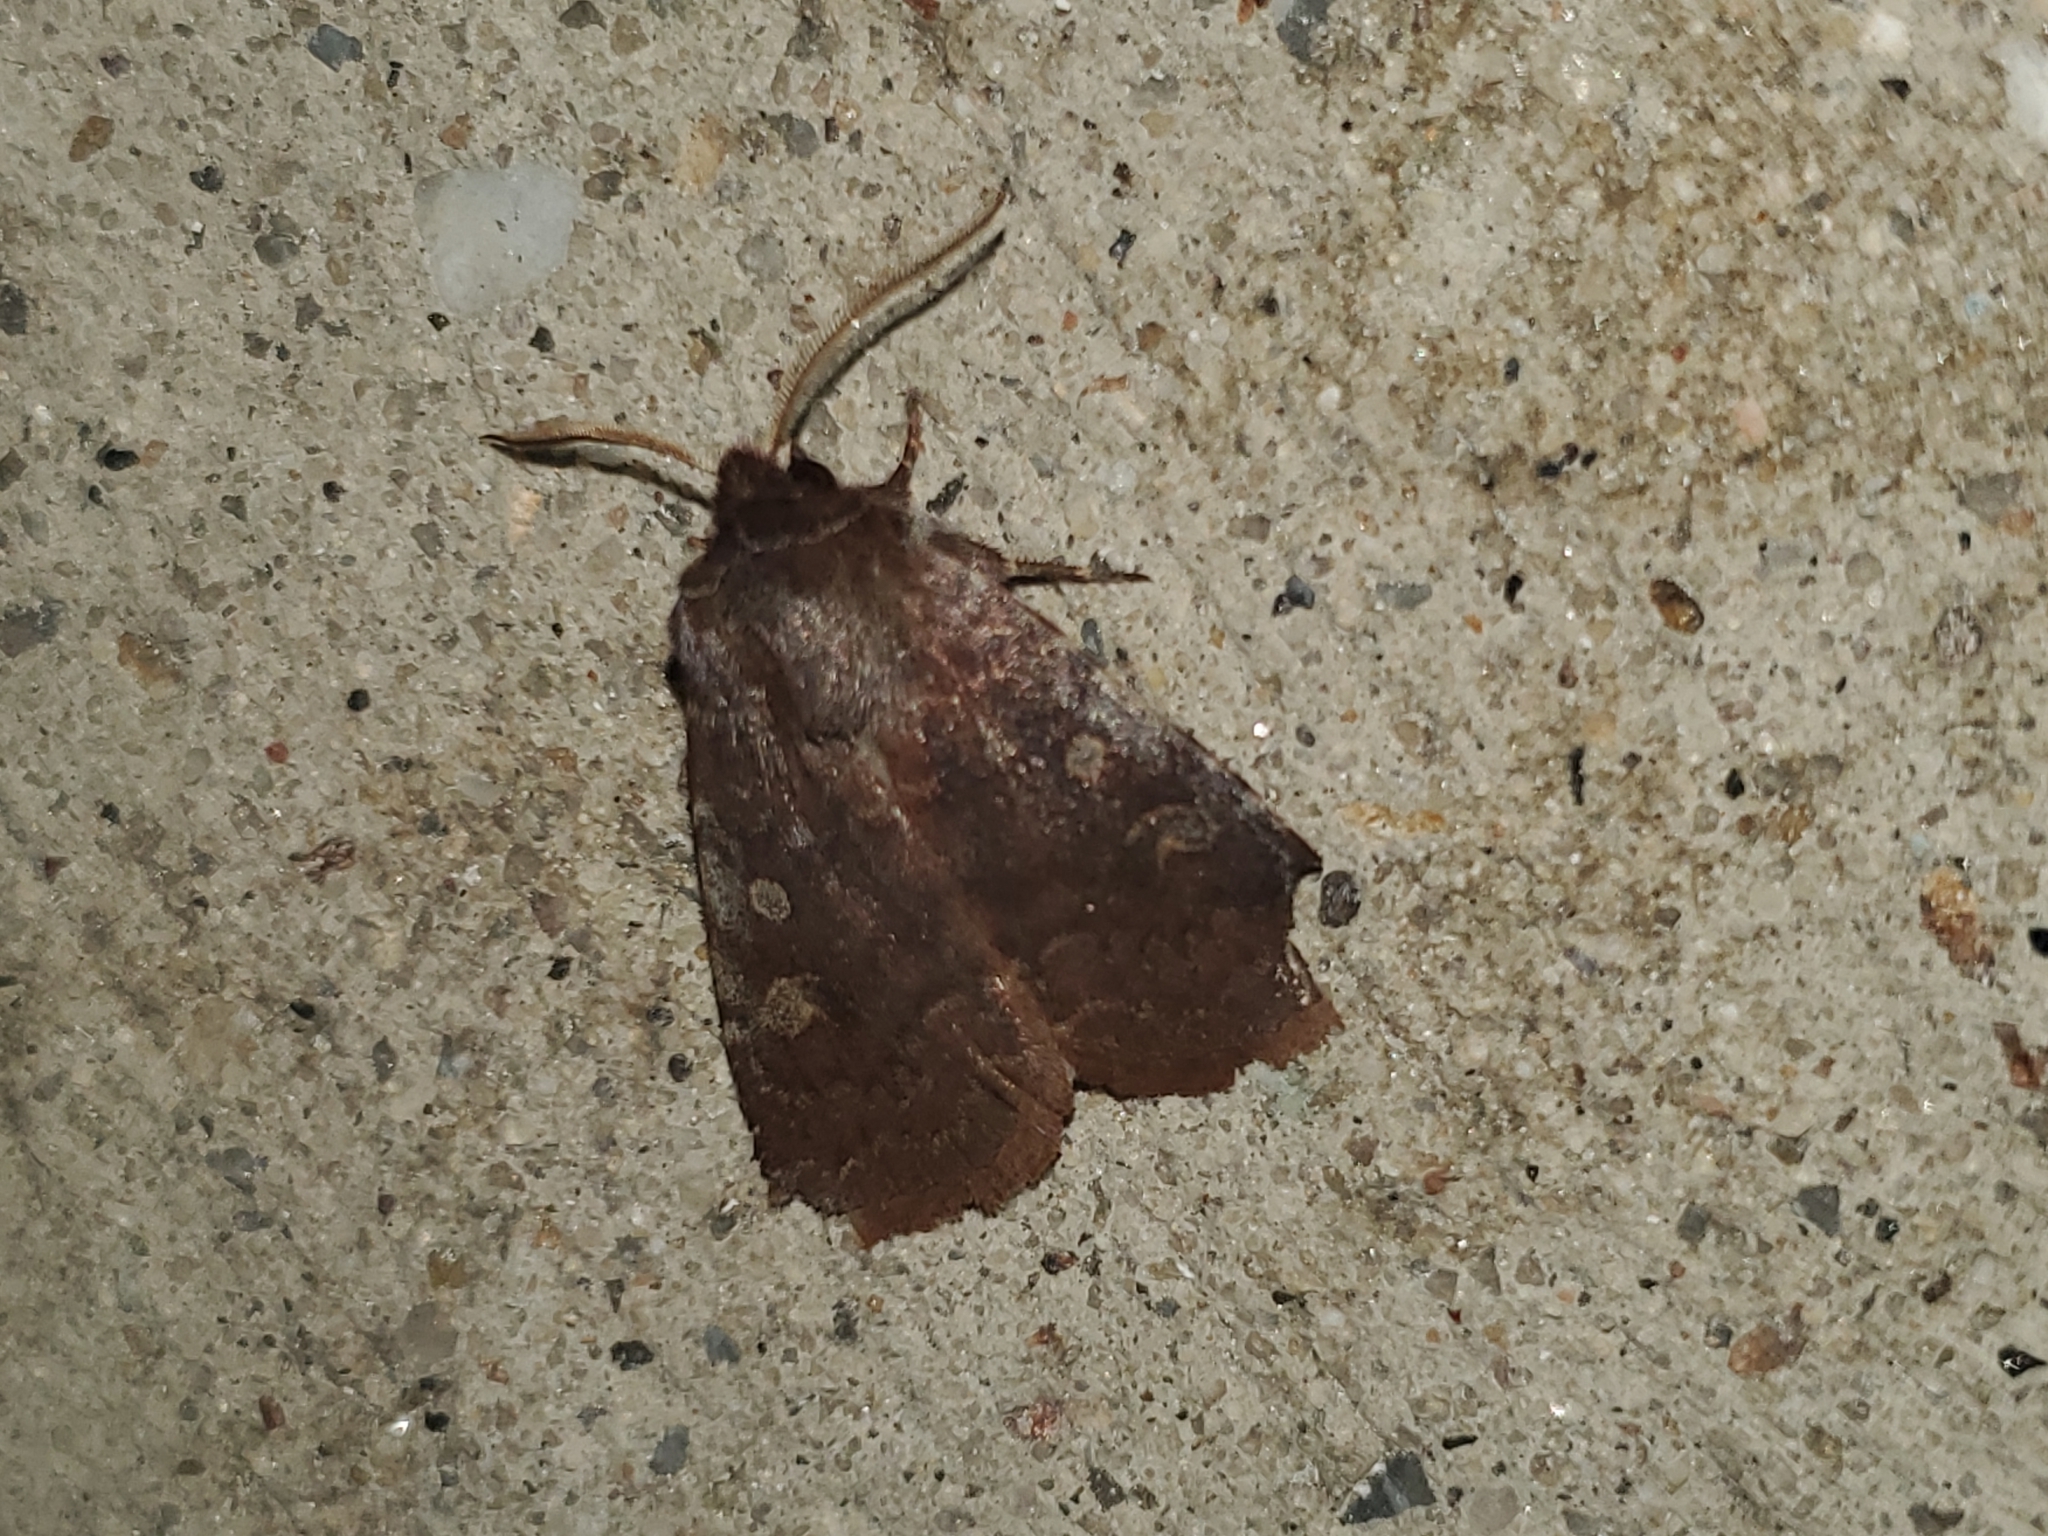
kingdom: Animalia
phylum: Arthropoda
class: Insecta
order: Lepidoptera
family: Noctuidae
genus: Cerastis
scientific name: Cerastis tenebrifera
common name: Reddish speckled dart
